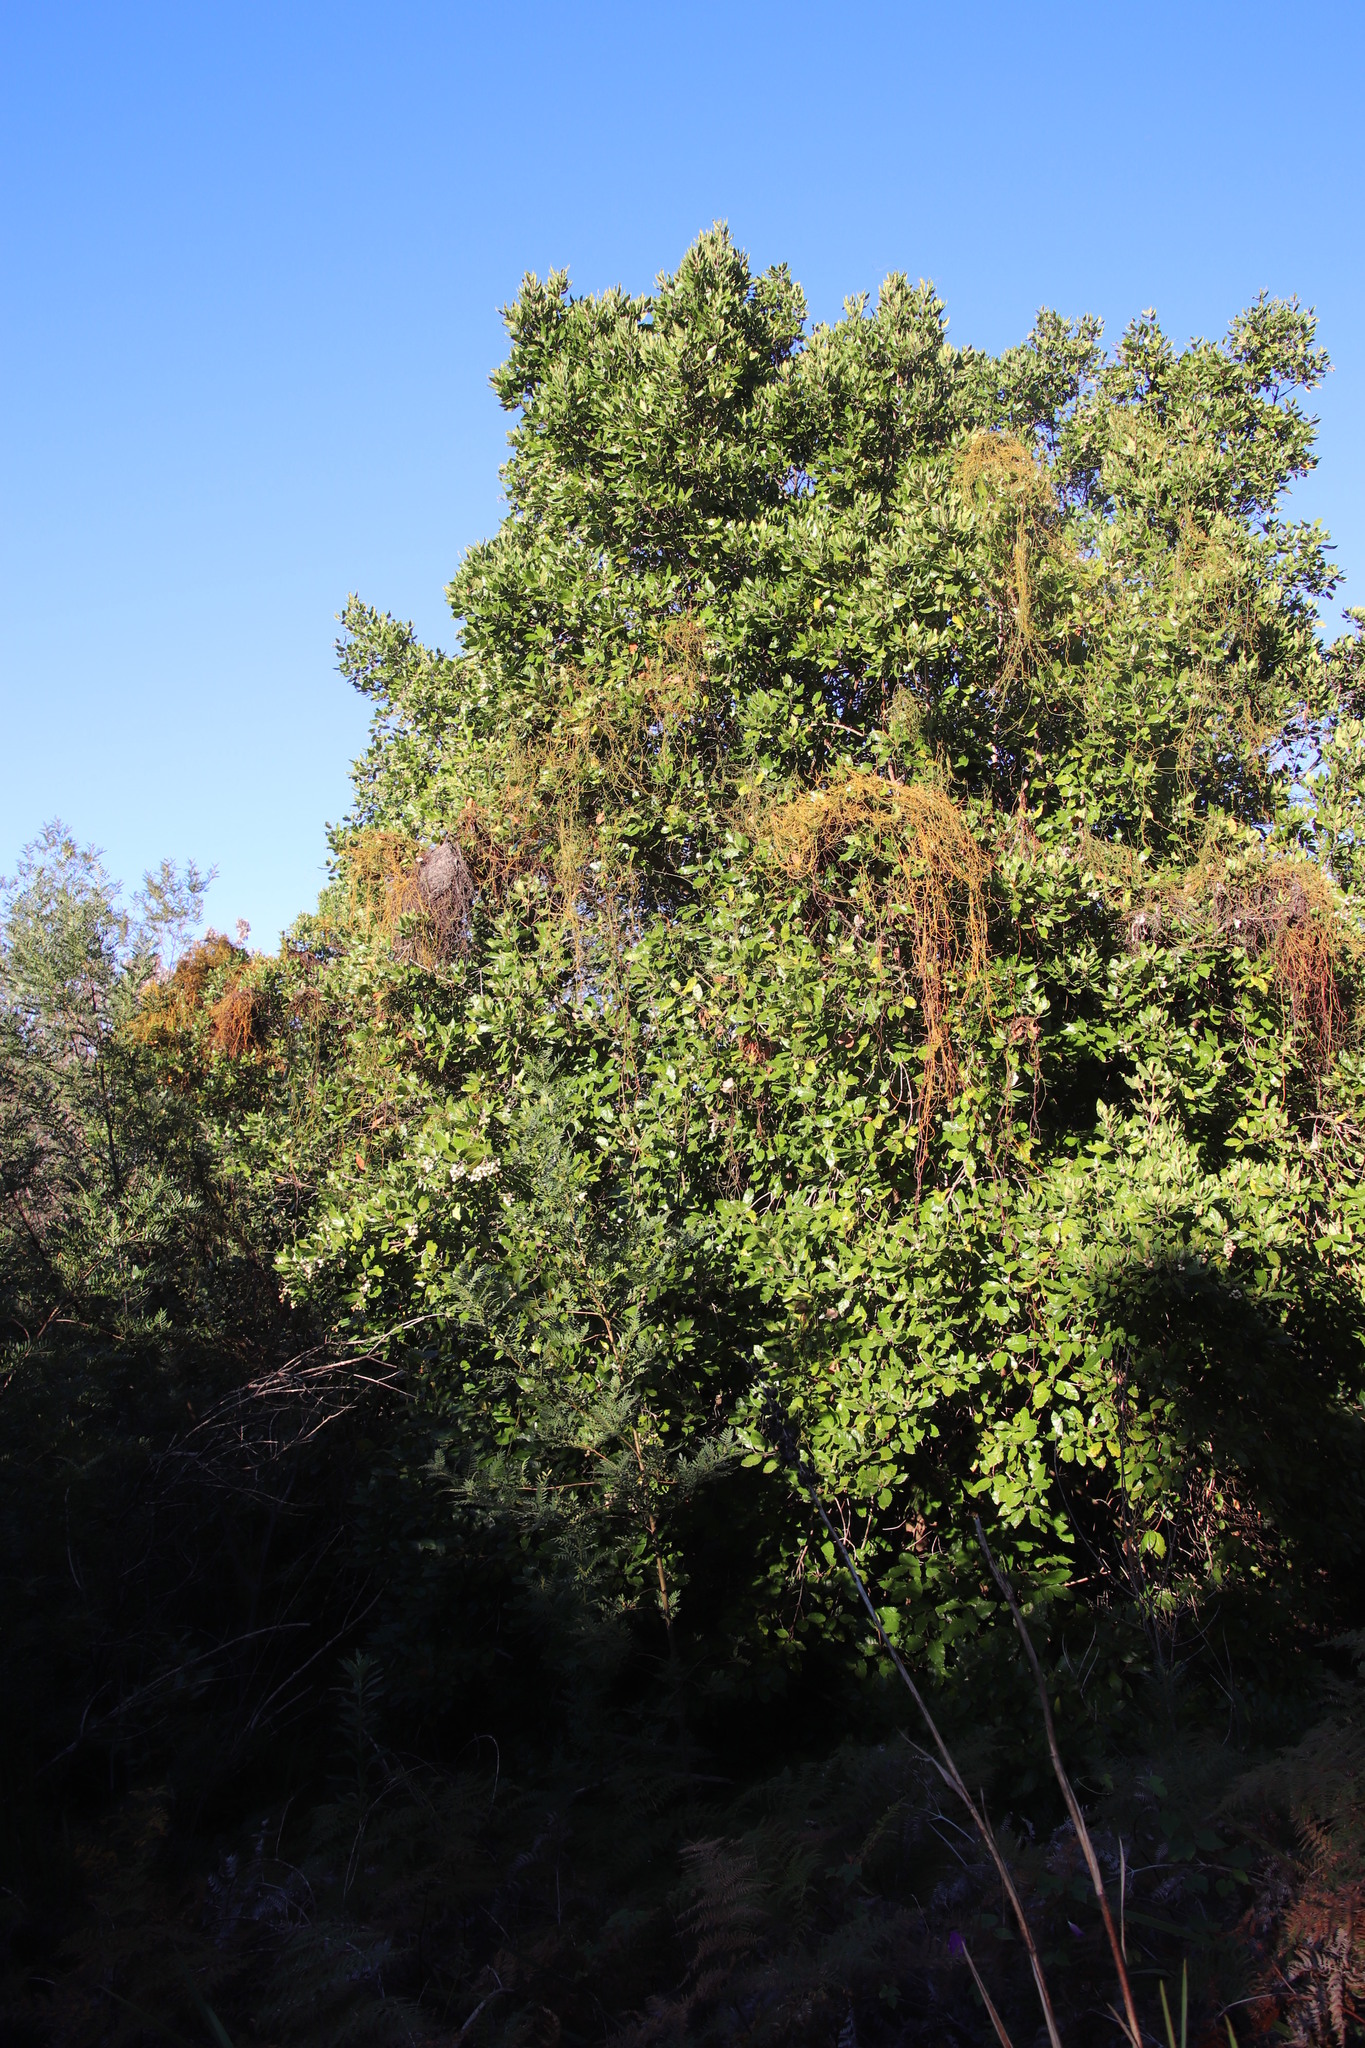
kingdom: Plantae
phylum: Tracheophyta
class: Magnoliopsida
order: Cornales
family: Curtisiaceae
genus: Curtisia
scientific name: Curtisia dentata
